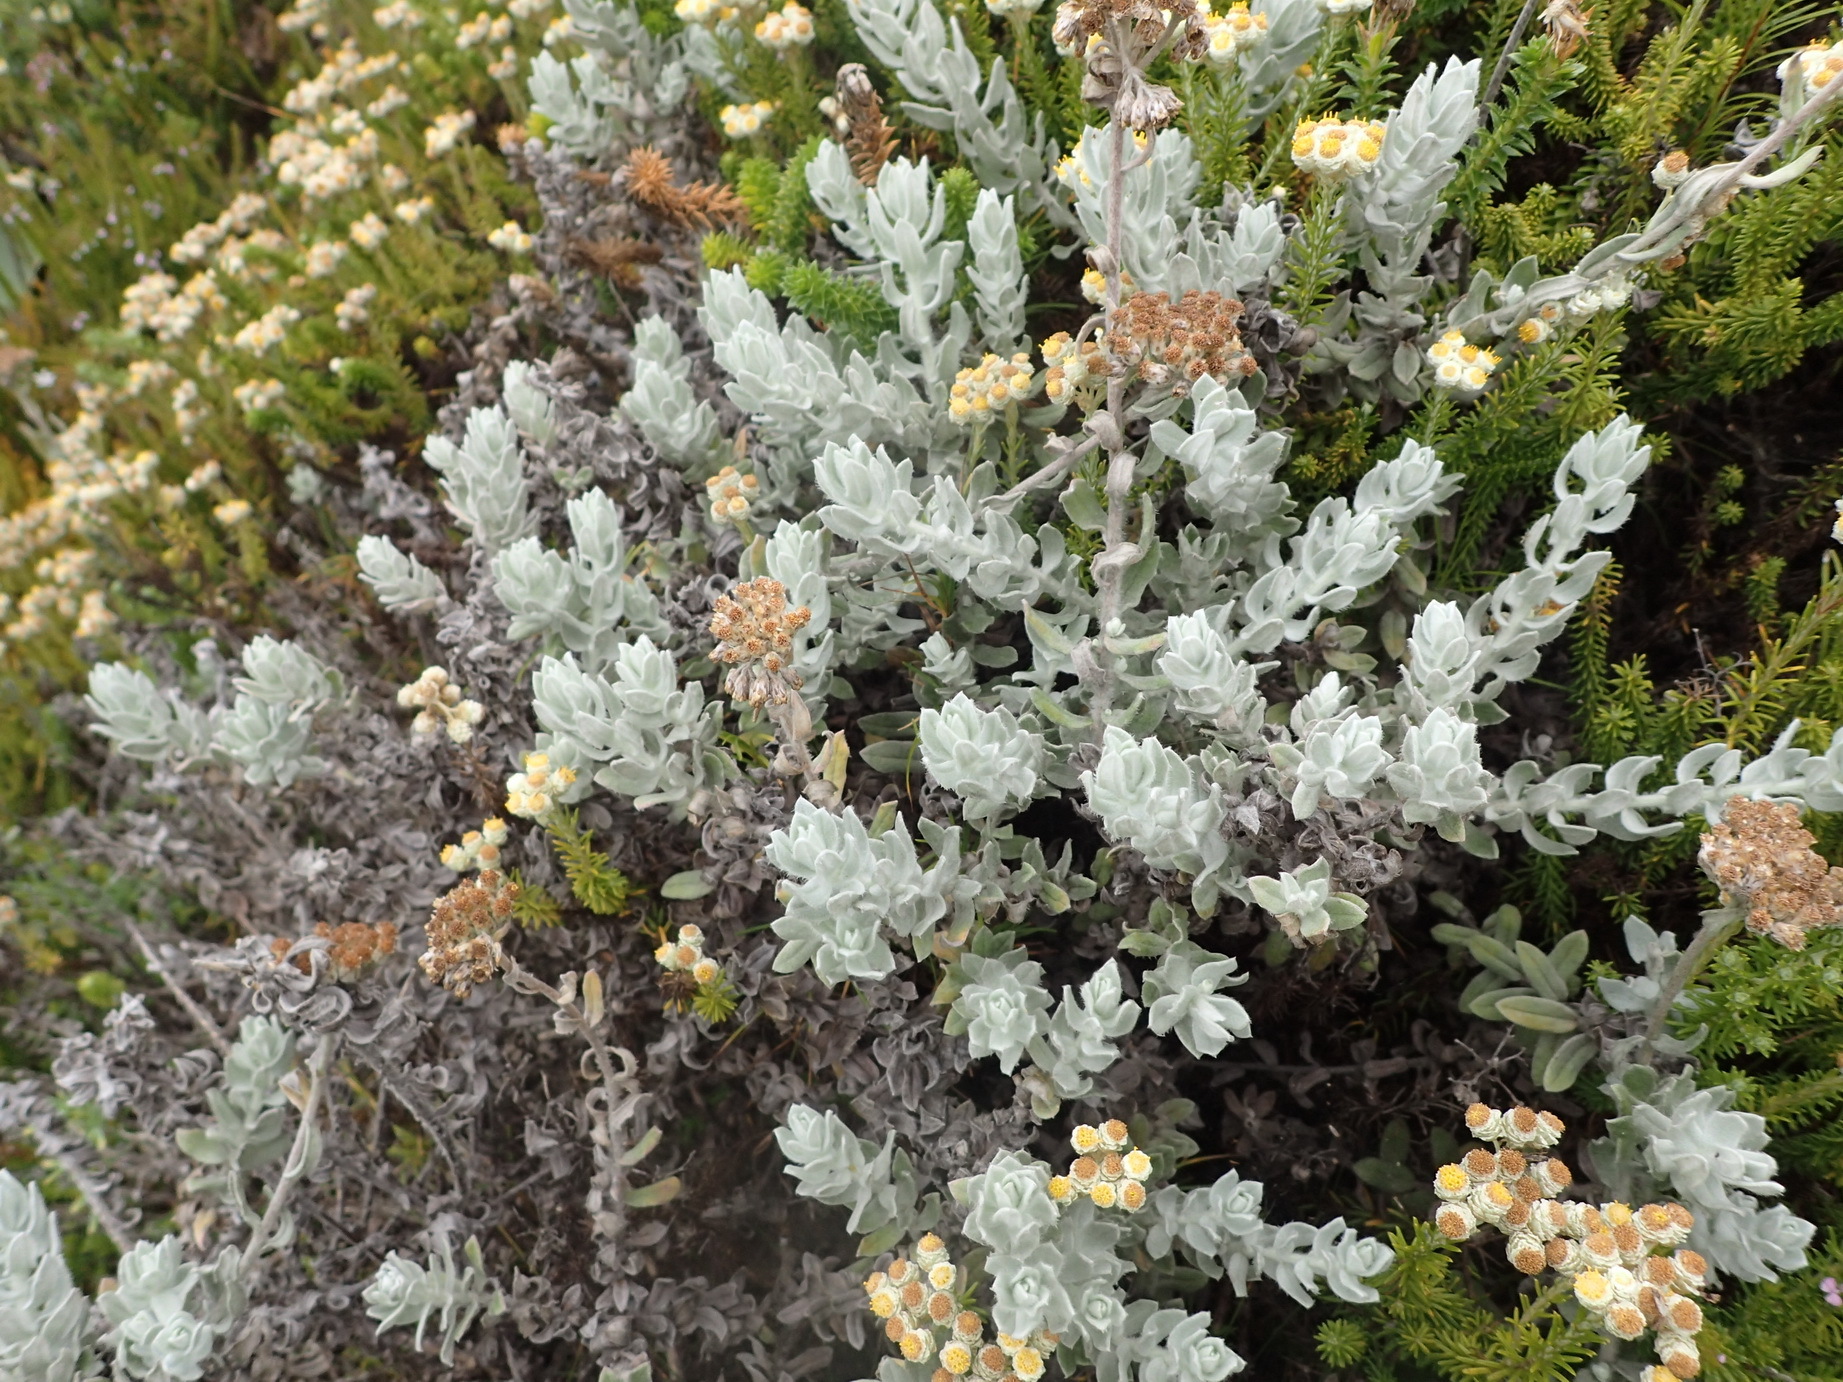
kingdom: Plantae
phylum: Tracheophyta
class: Magnoliopsida
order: Asterales
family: Asteraceae
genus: Helichrysum
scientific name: Helichrysum dasyanthum
